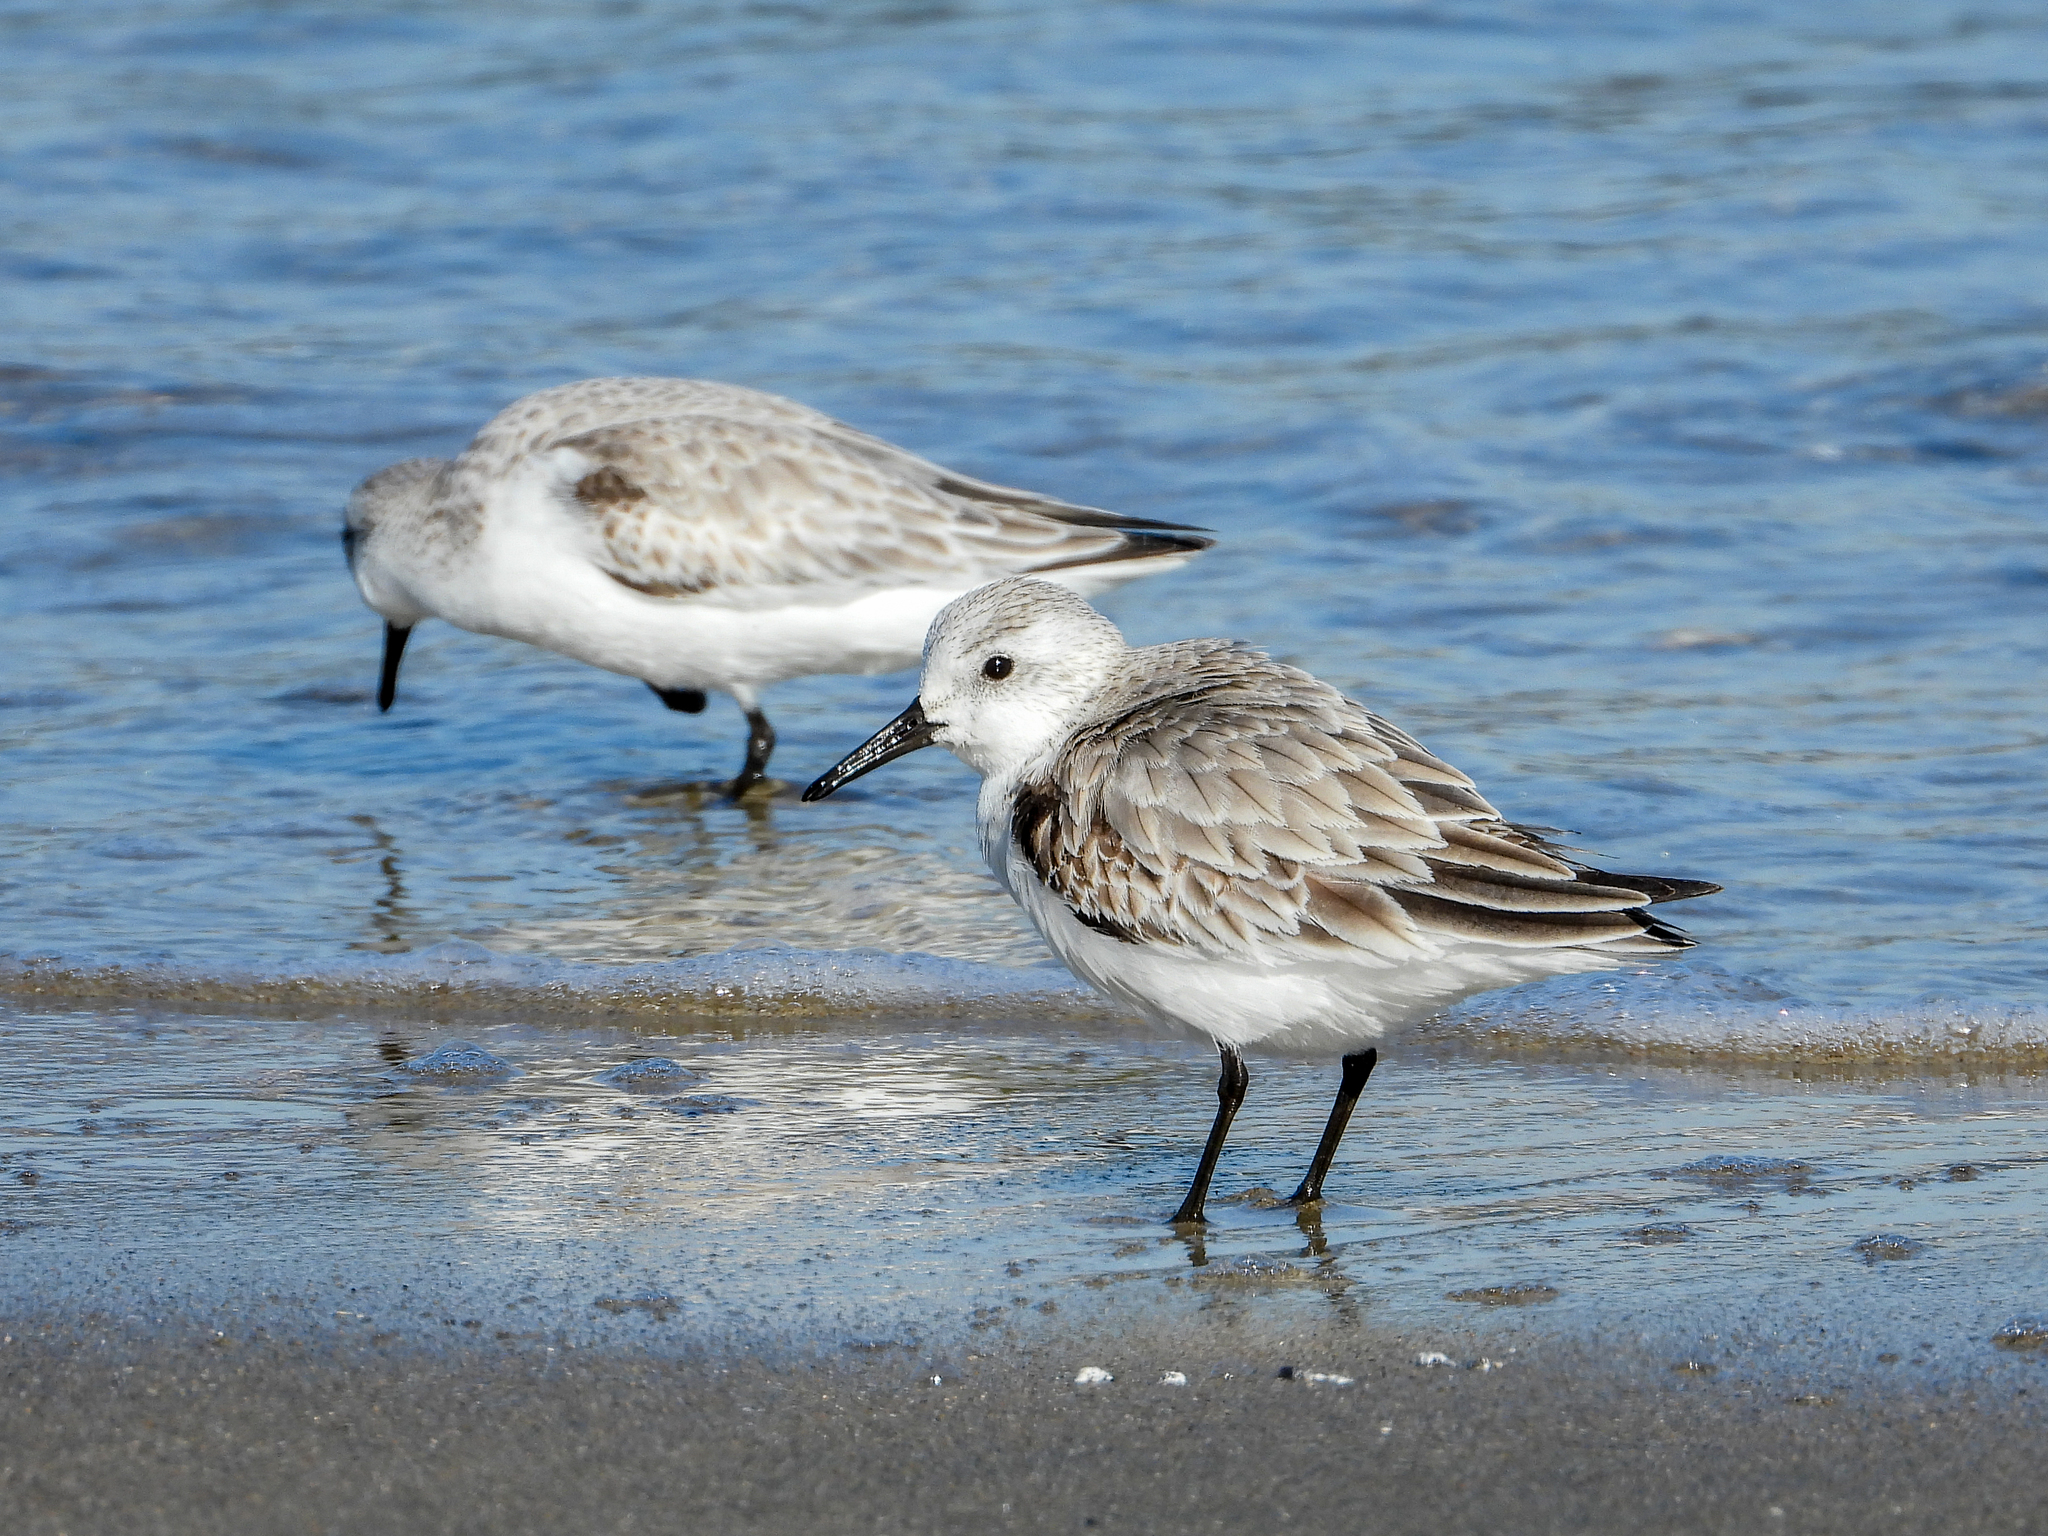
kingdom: Animalia
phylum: Chordata
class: Aves
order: Charadriiformes
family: Scolopacidae
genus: Calidris
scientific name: Calidris alba
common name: Sanderling
